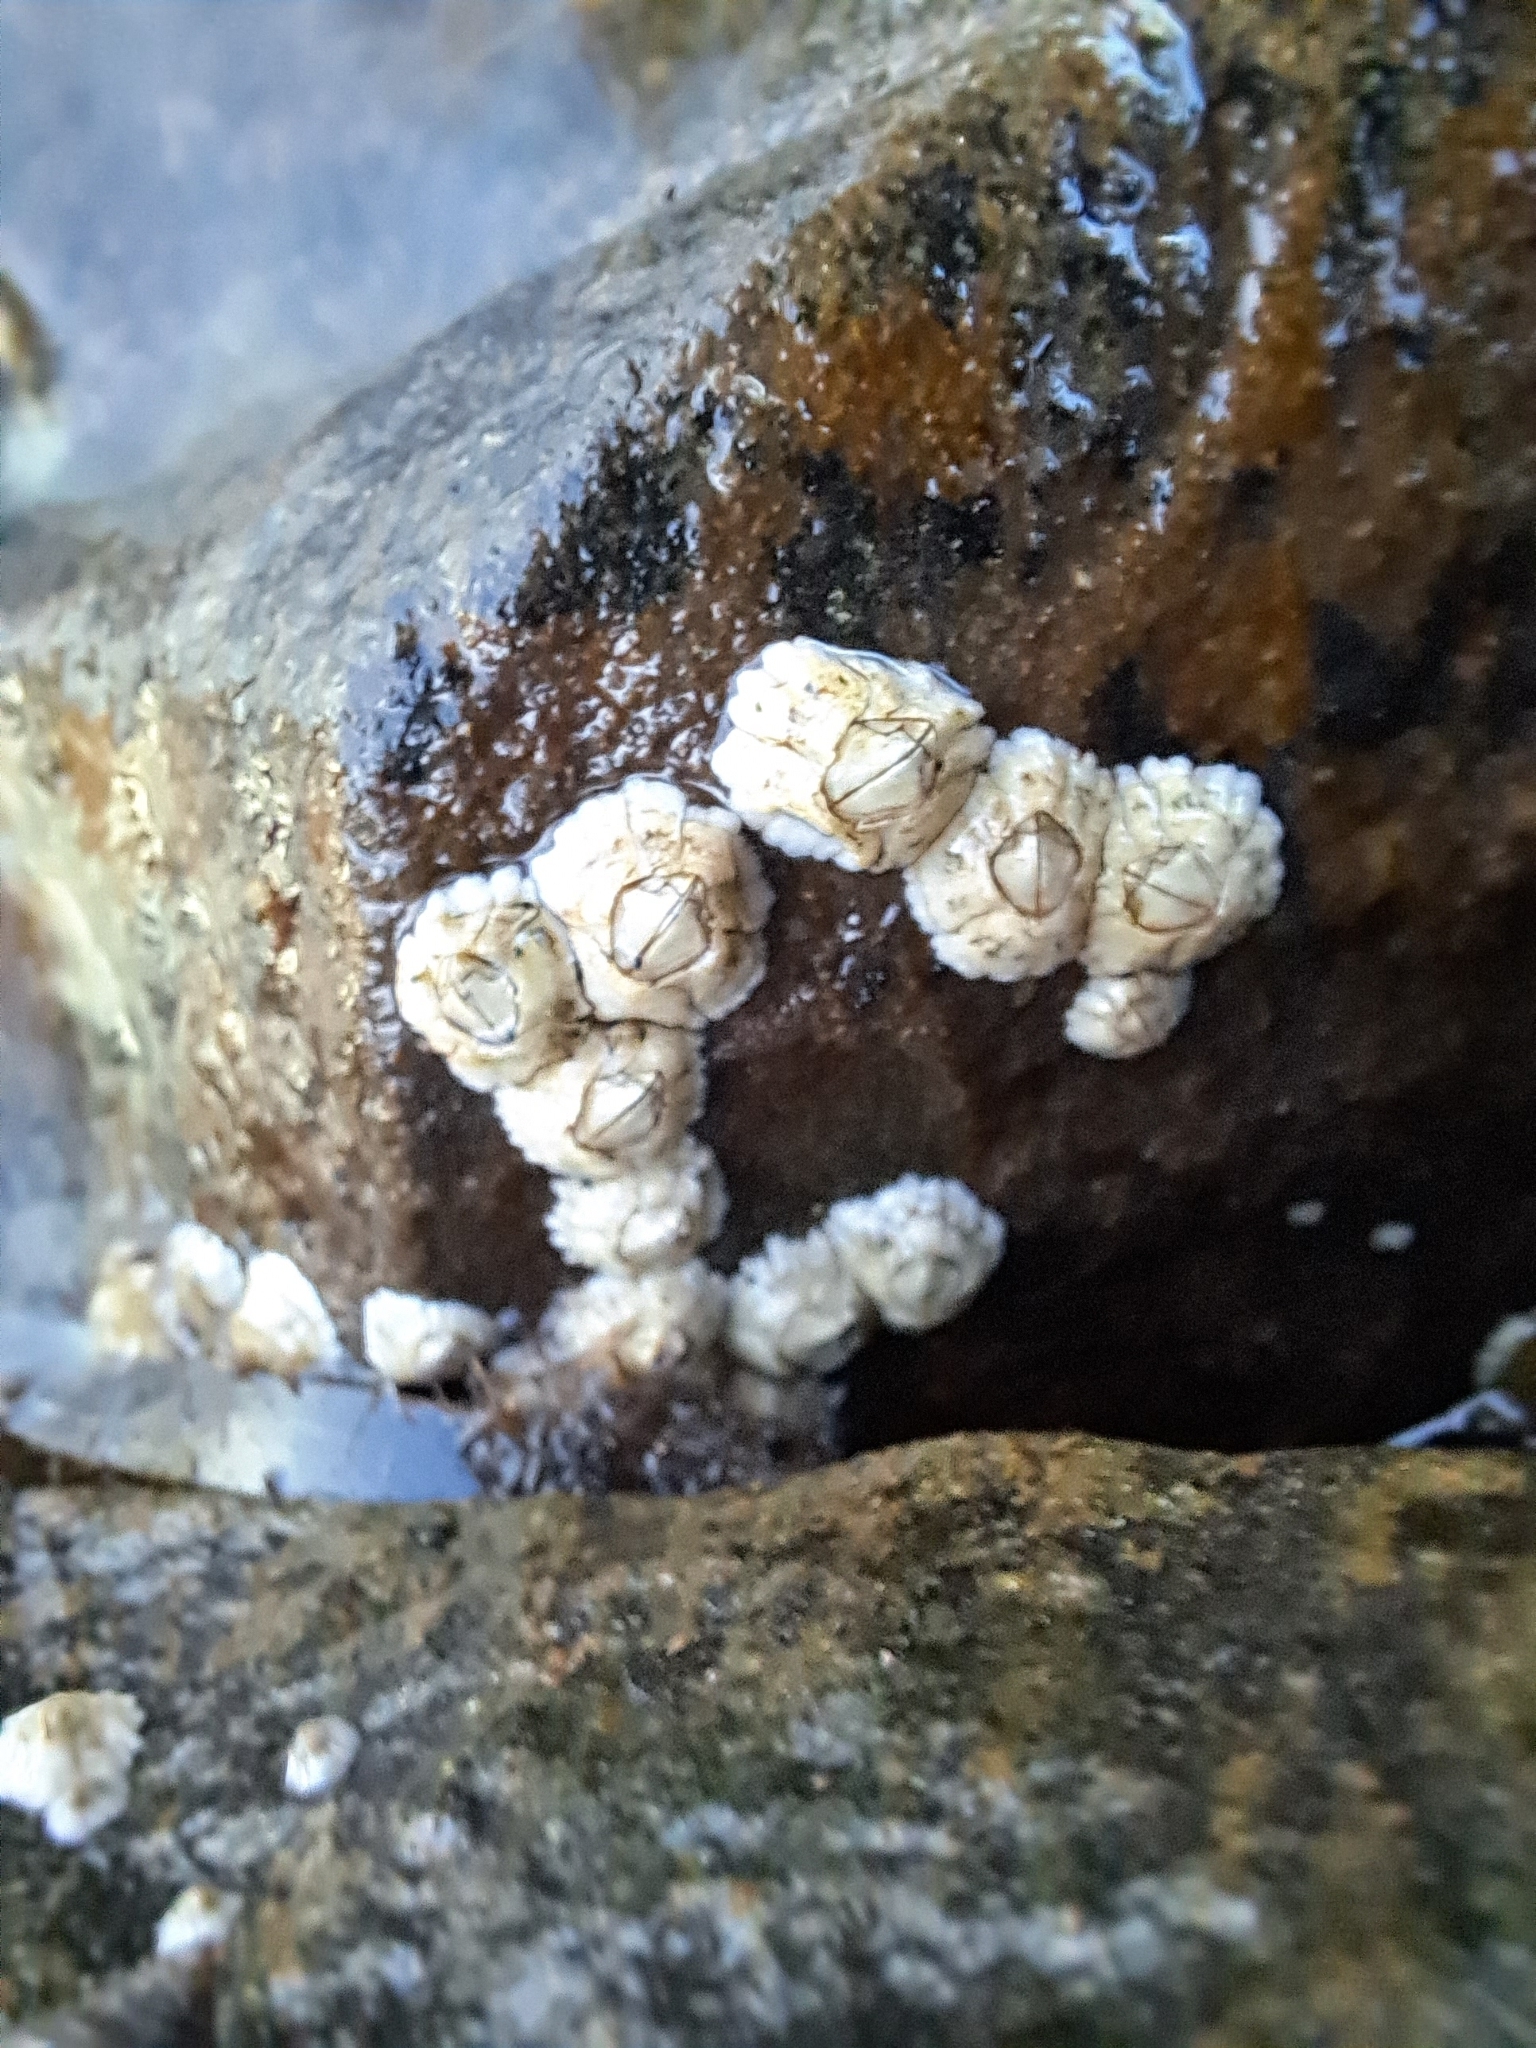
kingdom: Animalia
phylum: Arthropoda
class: Maxillopoda
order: Sessilia
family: Archaeobalanidae
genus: Semibalanus
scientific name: Semibalanus balanoides
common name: Acorn barnacle
